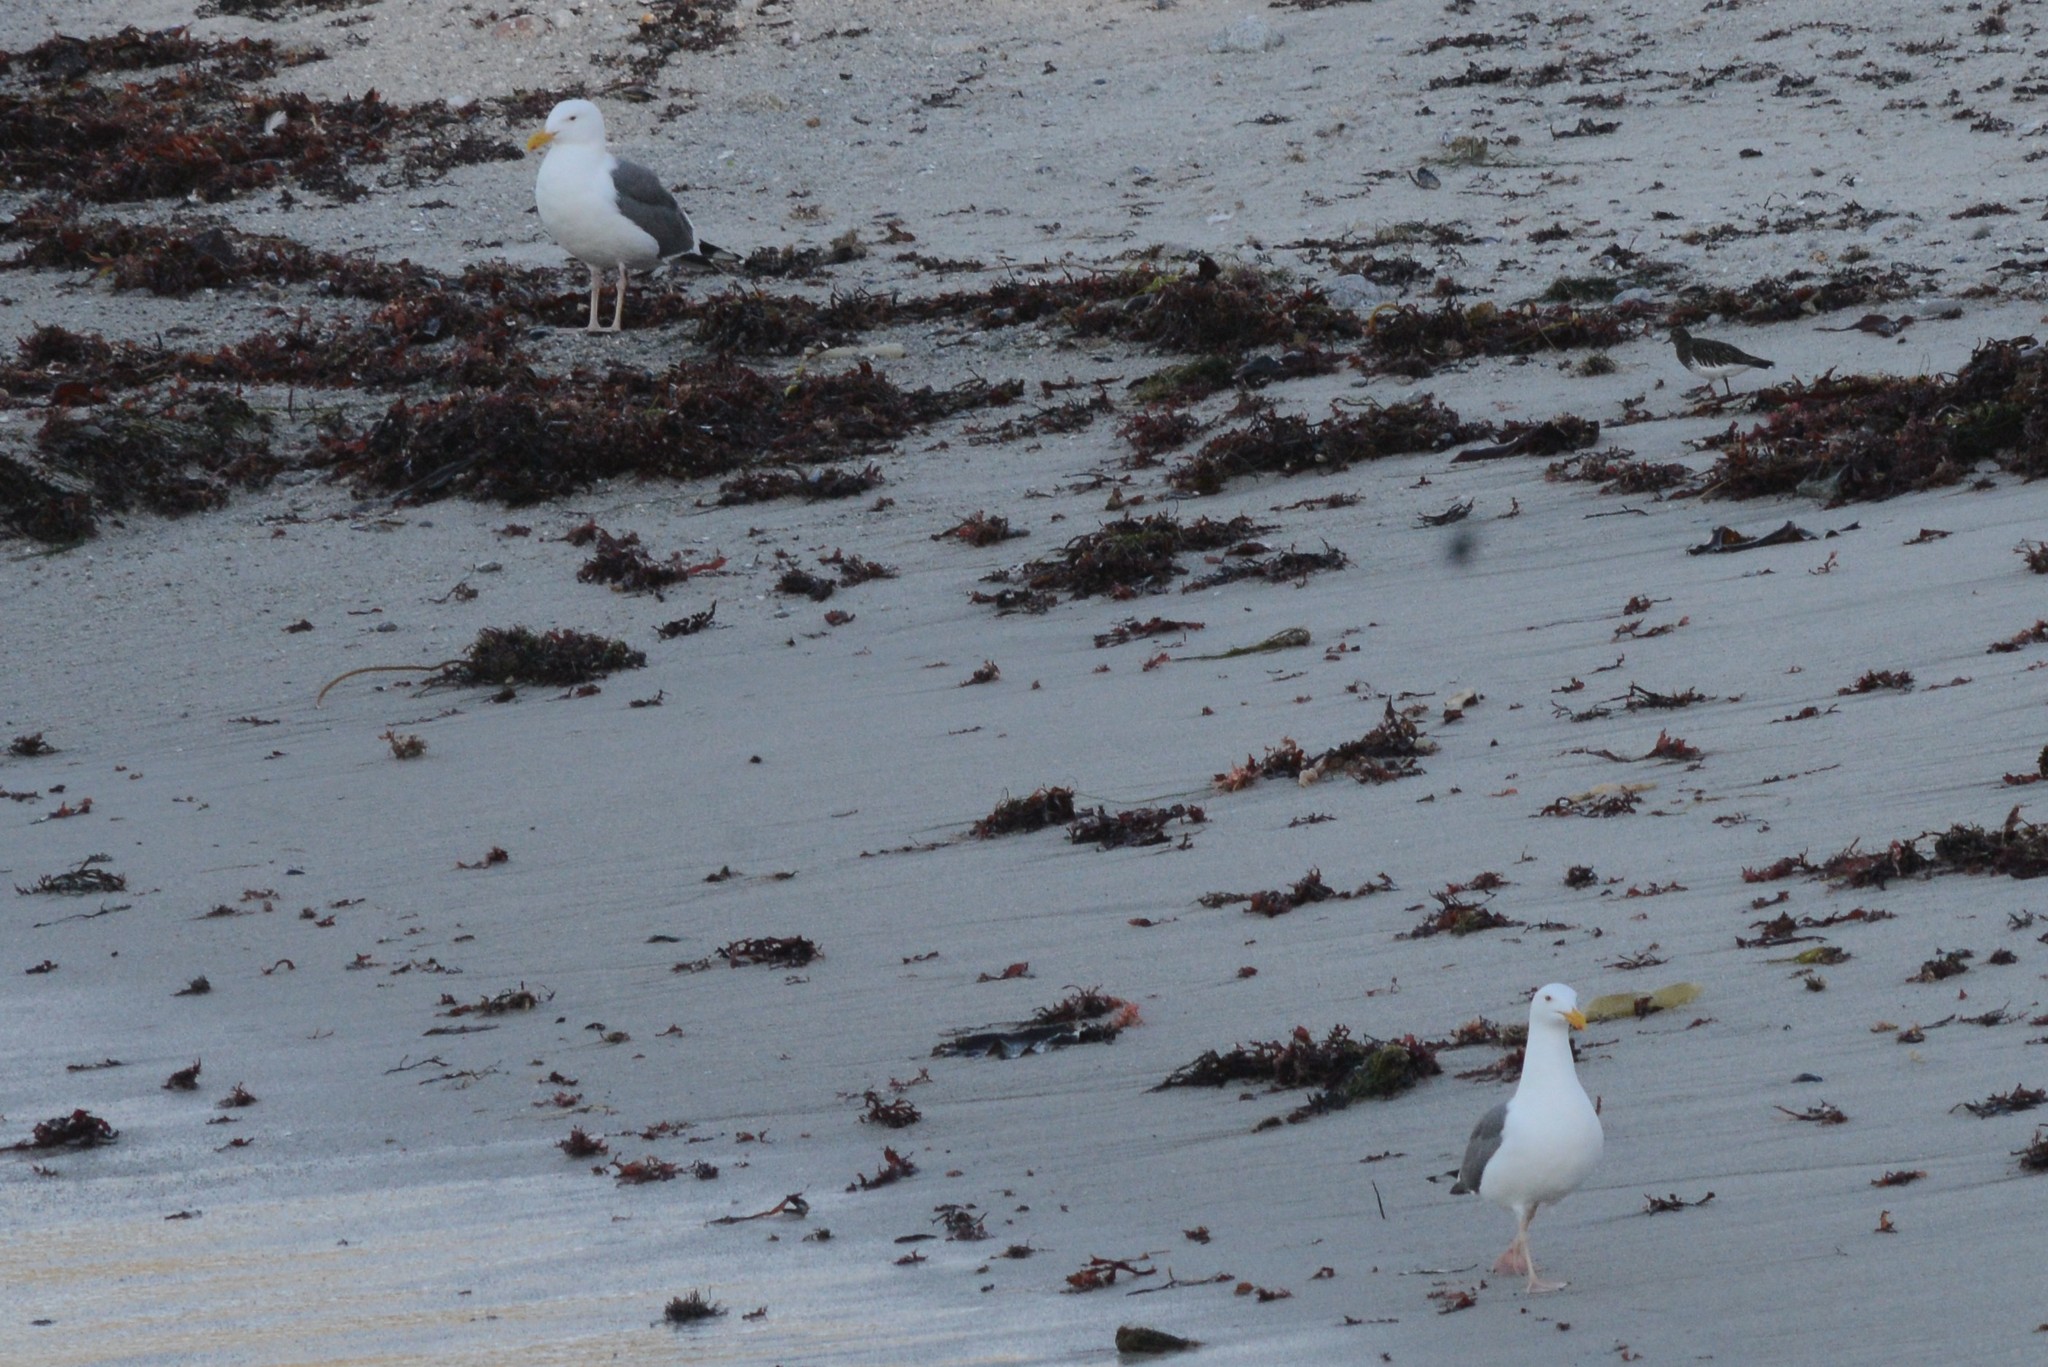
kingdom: Animalia
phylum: Chordata
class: Aves
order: Charadriiformes
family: Laridae
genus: Larus
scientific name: Larus occidentalis
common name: Western gull
